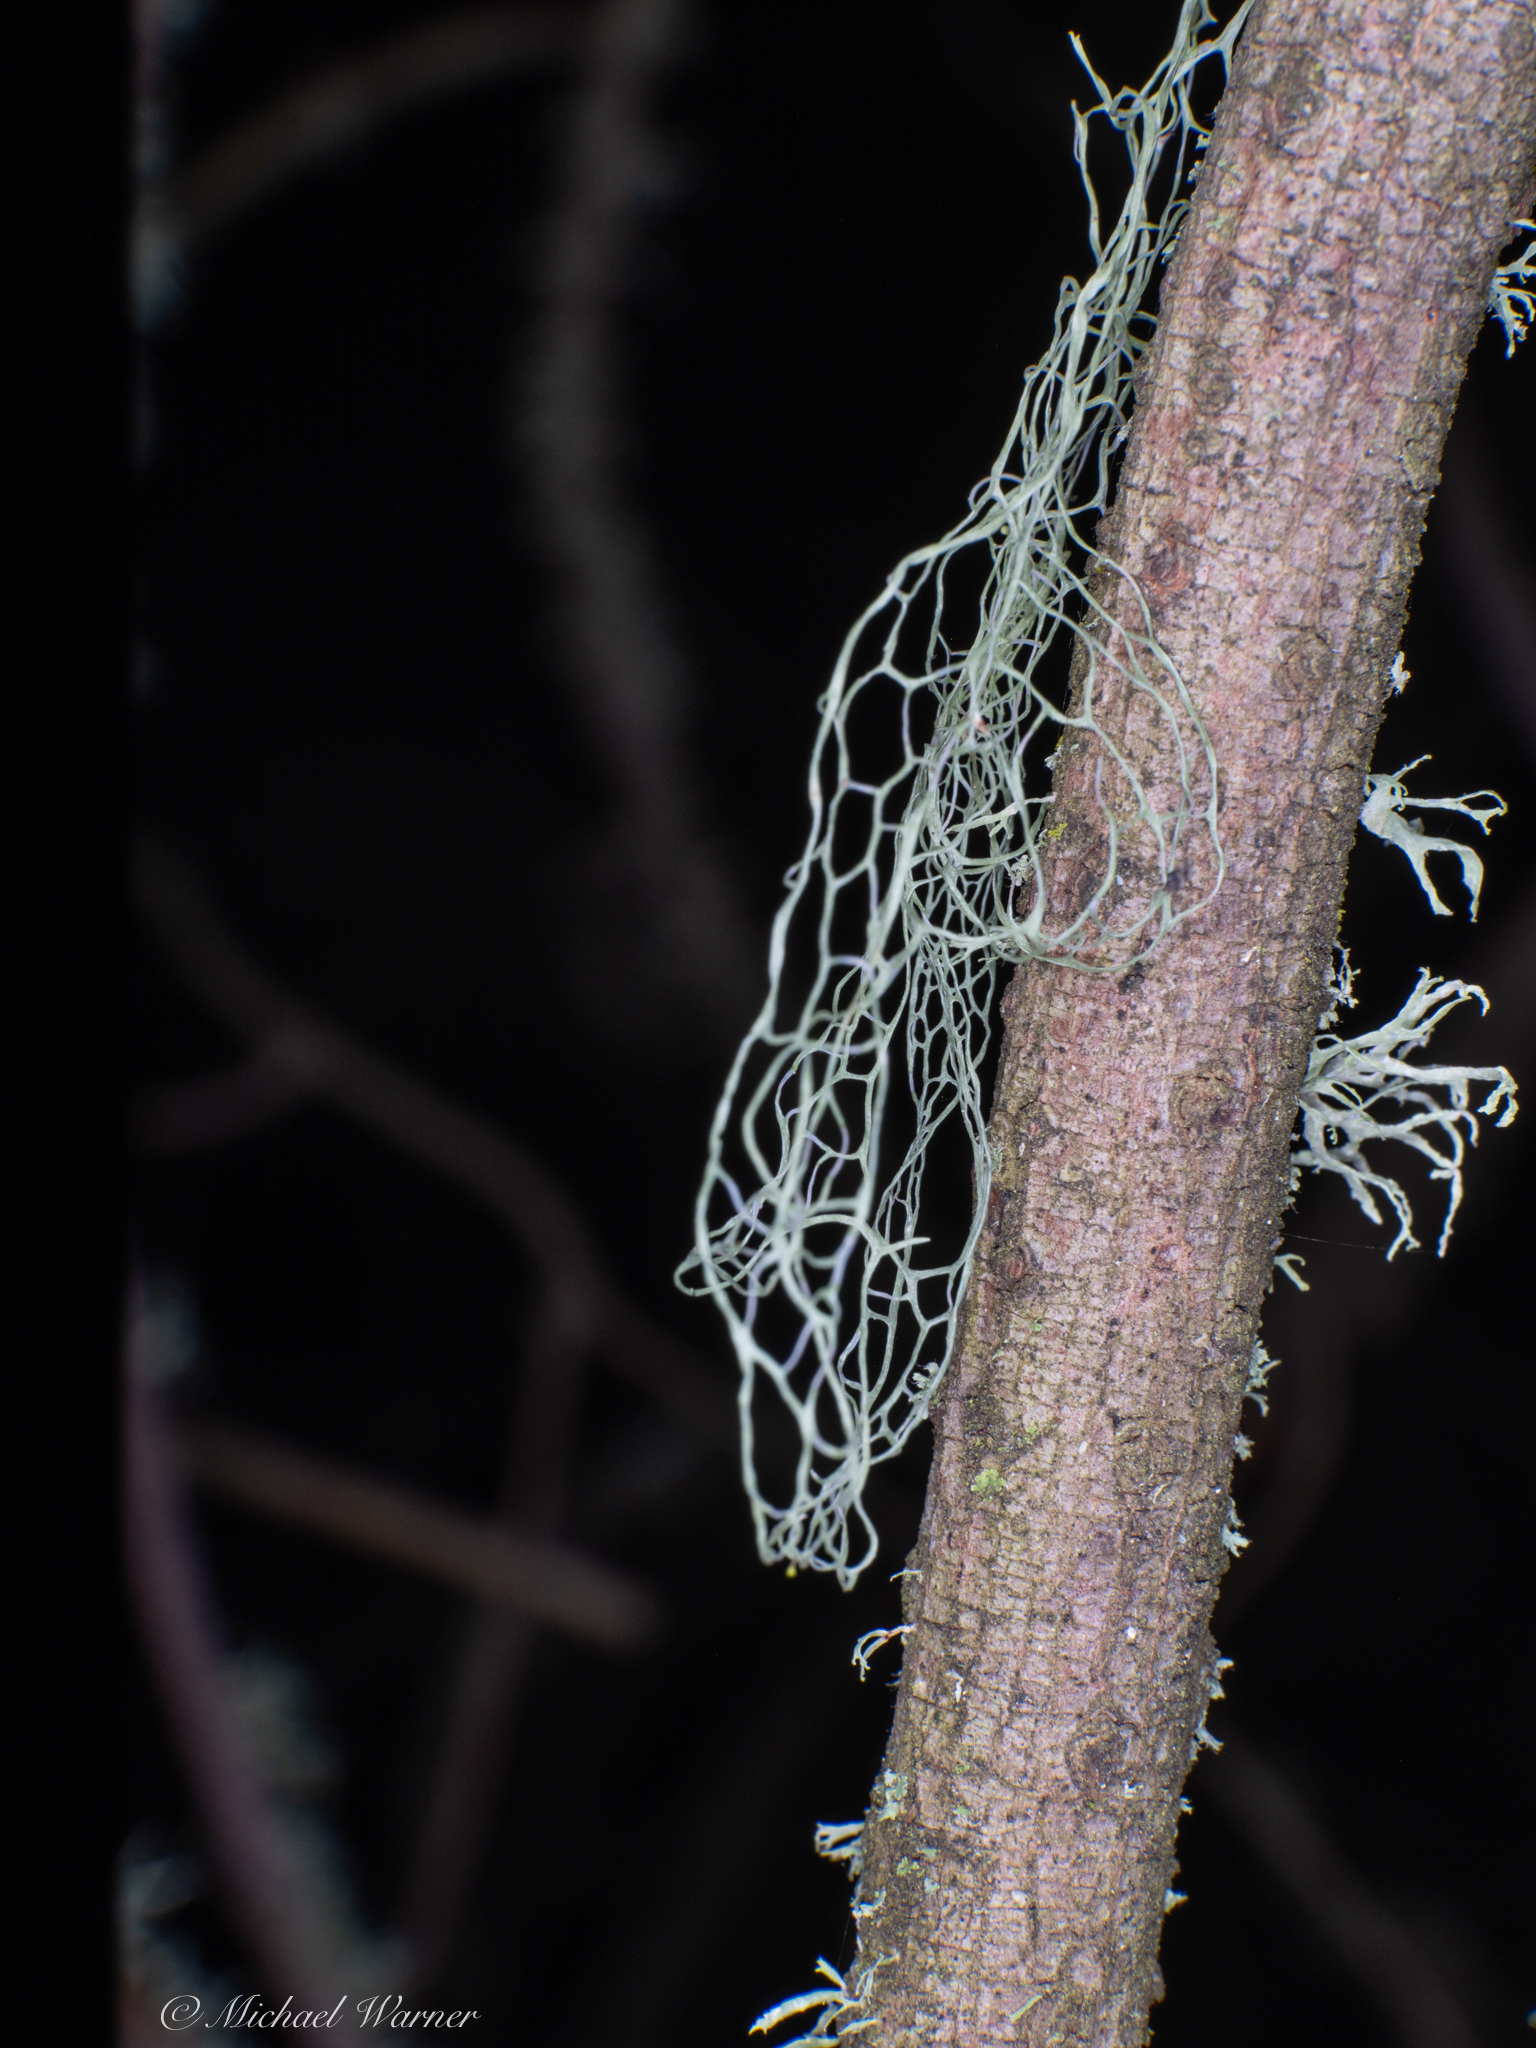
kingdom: Fungi
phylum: Ascomycota
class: Lecanoromycetes
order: Lecanorales
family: Ramalinaceae
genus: Ramalina
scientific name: Ramalina menziesii
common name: Lace lichen
